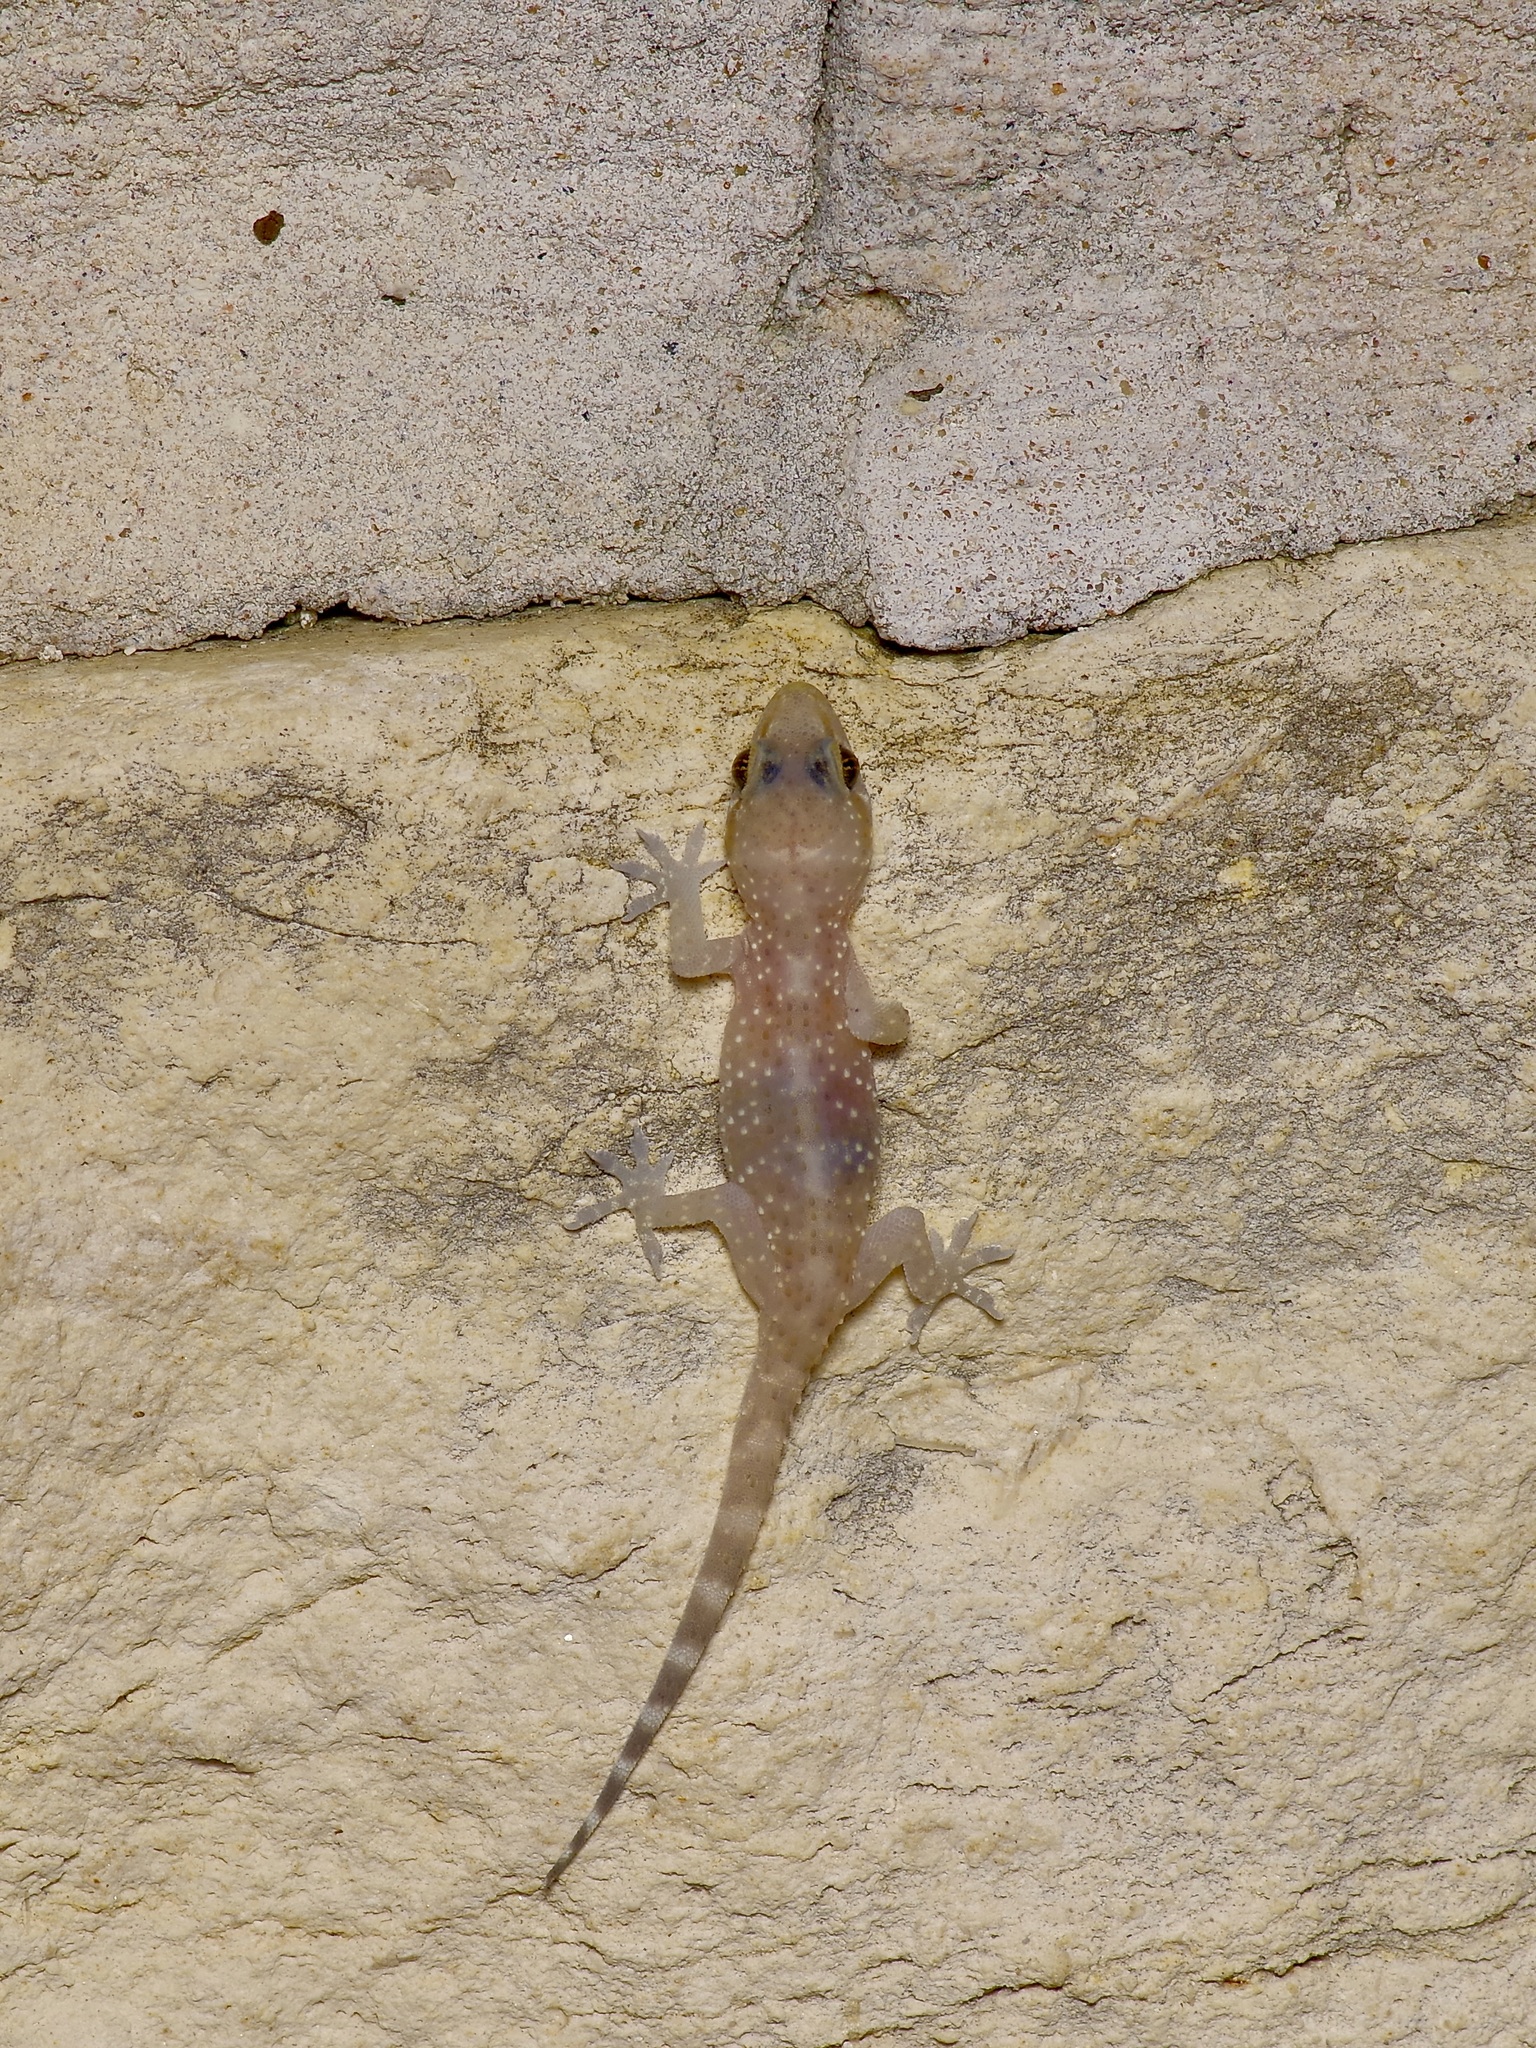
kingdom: Animalia
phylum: Chordata
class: Squamata
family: Gekkonidae
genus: Hemidactylus
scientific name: Hemidactylus turcicus
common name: Turkish gecko
